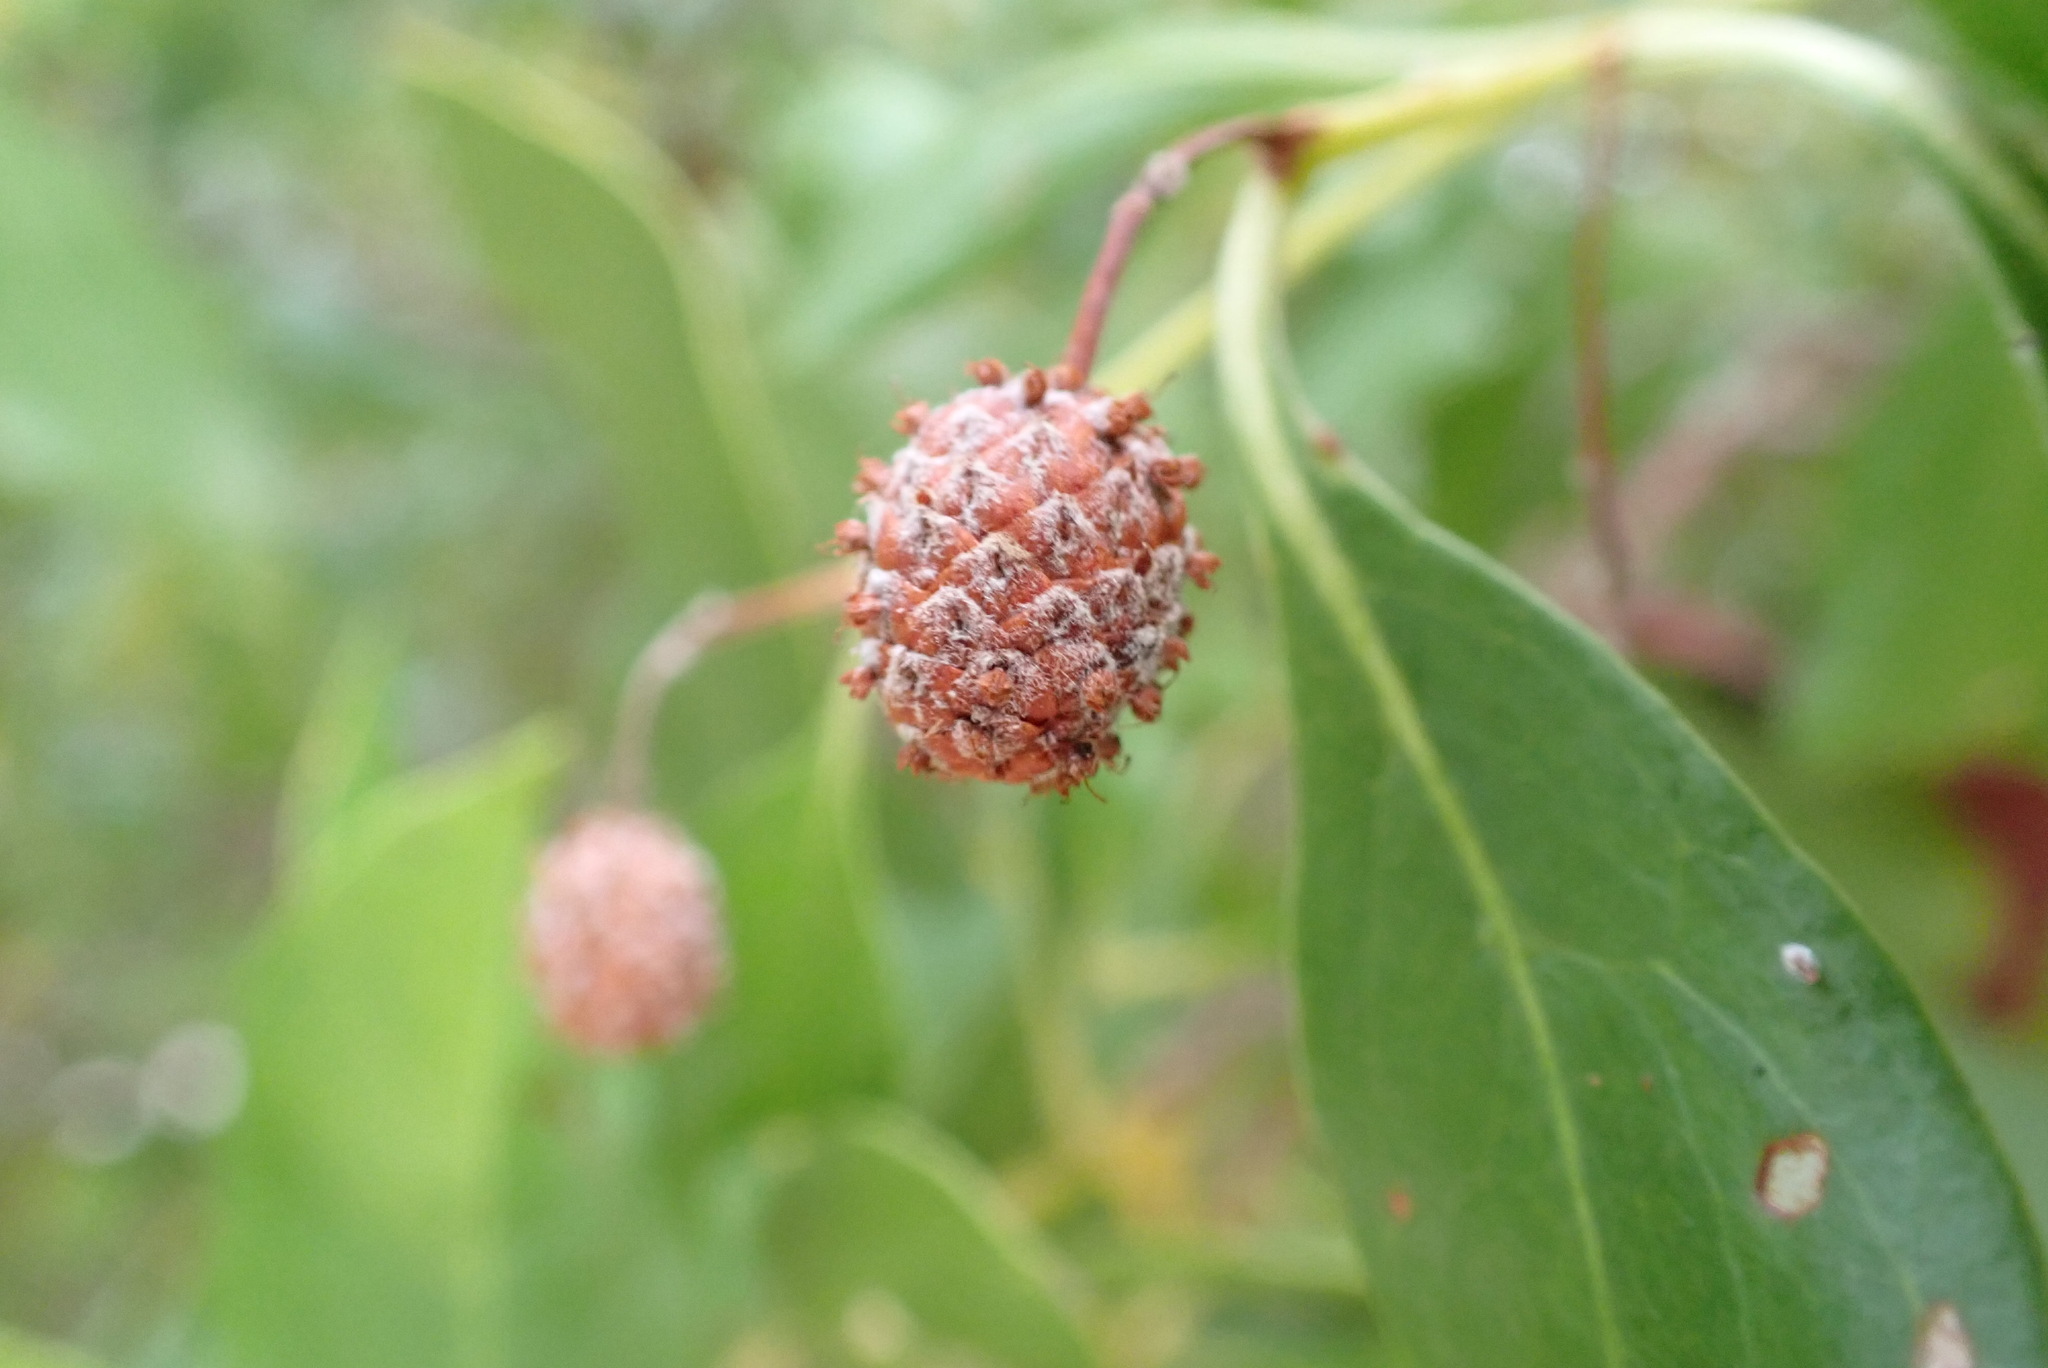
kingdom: Plantae
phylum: Tracheophyta
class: Magnoliopsida
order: Myrtales
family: Combretaceae
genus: Conocarpus
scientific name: Conocarpus erectus
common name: Button mangrove
